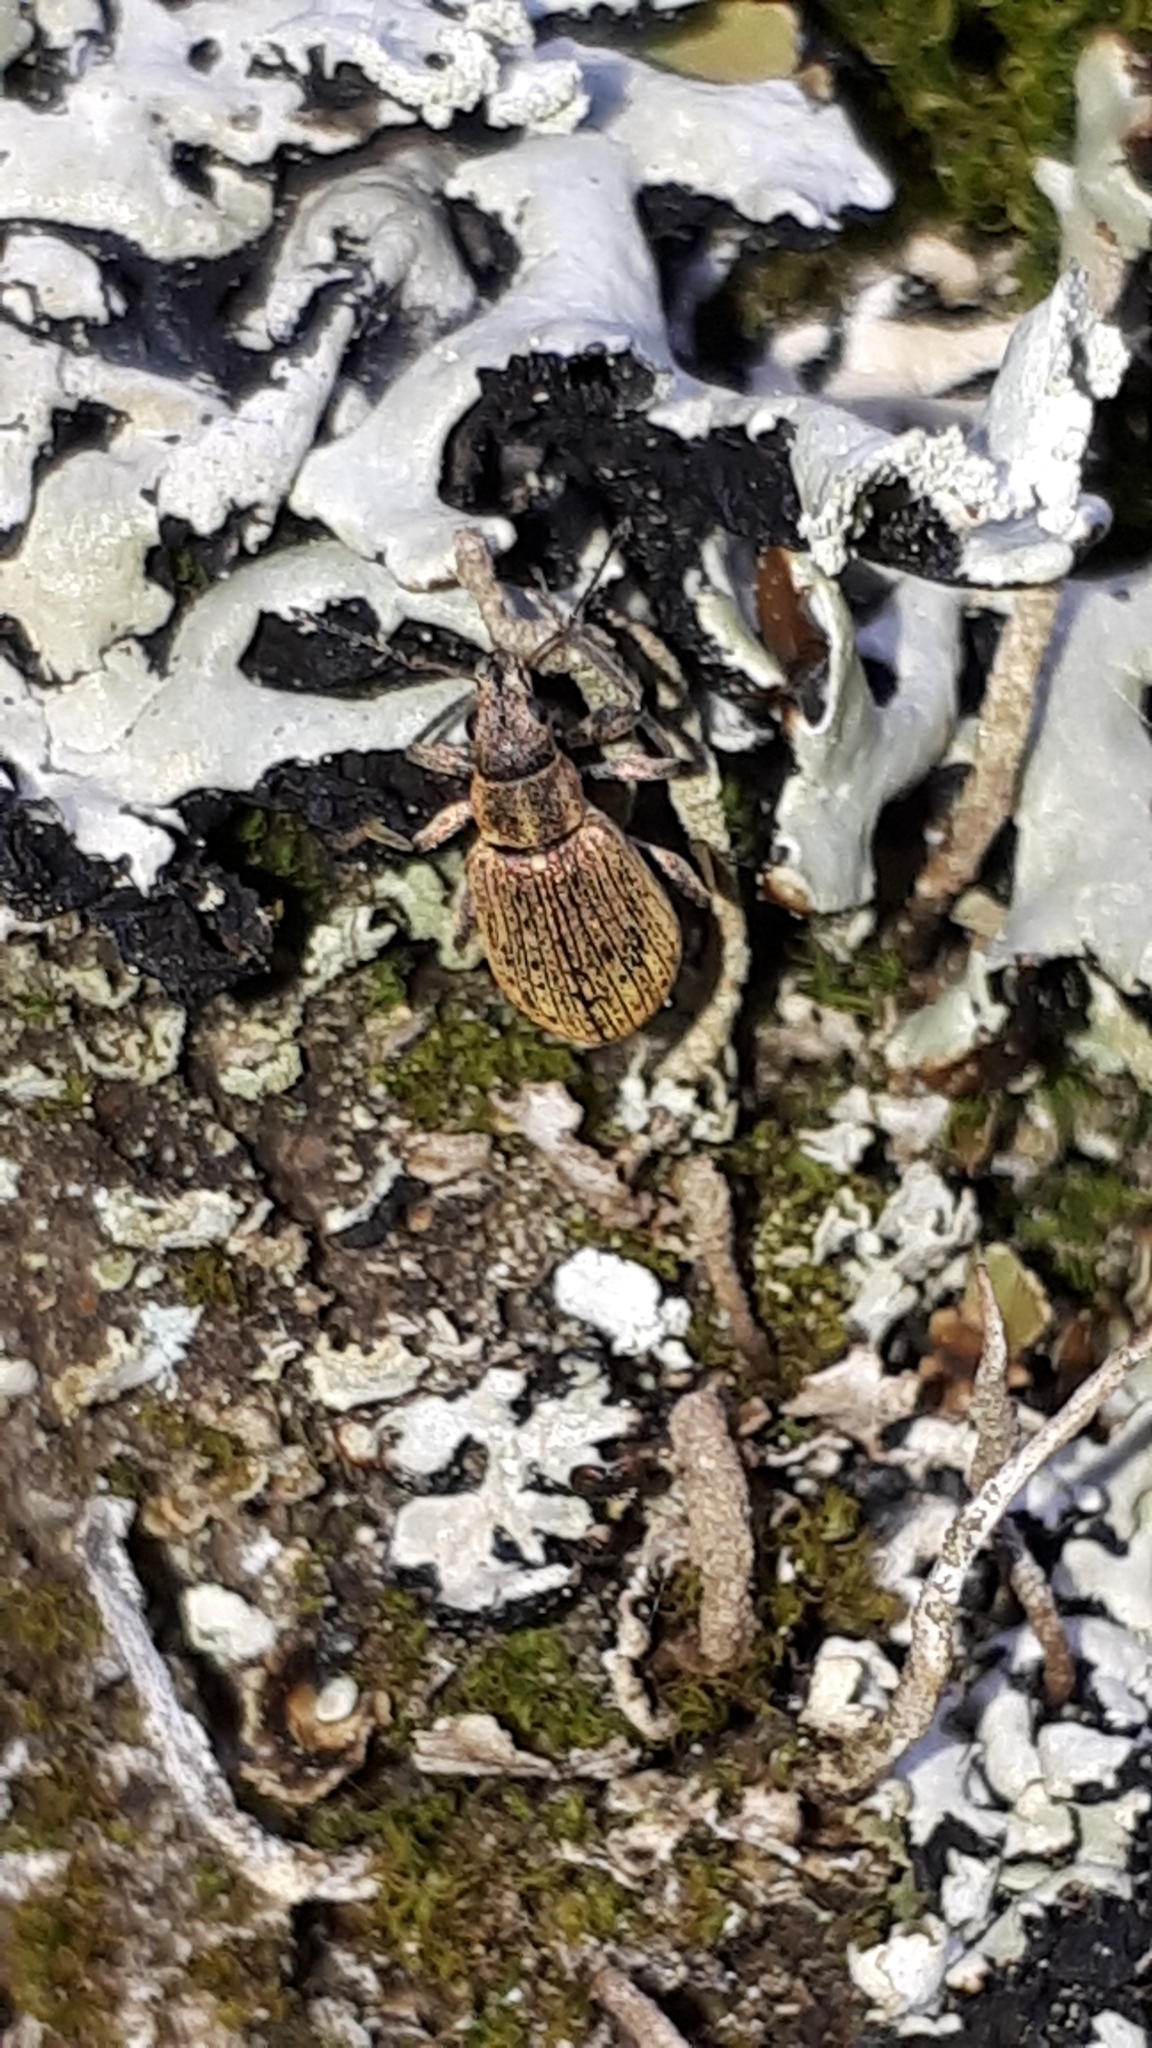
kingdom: Animalia
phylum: Arthropoda
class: Insecta
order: Coleoptera
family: Curculionidae
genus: Polydrusus
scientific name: Polydrusus cervinus
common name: Weevil
